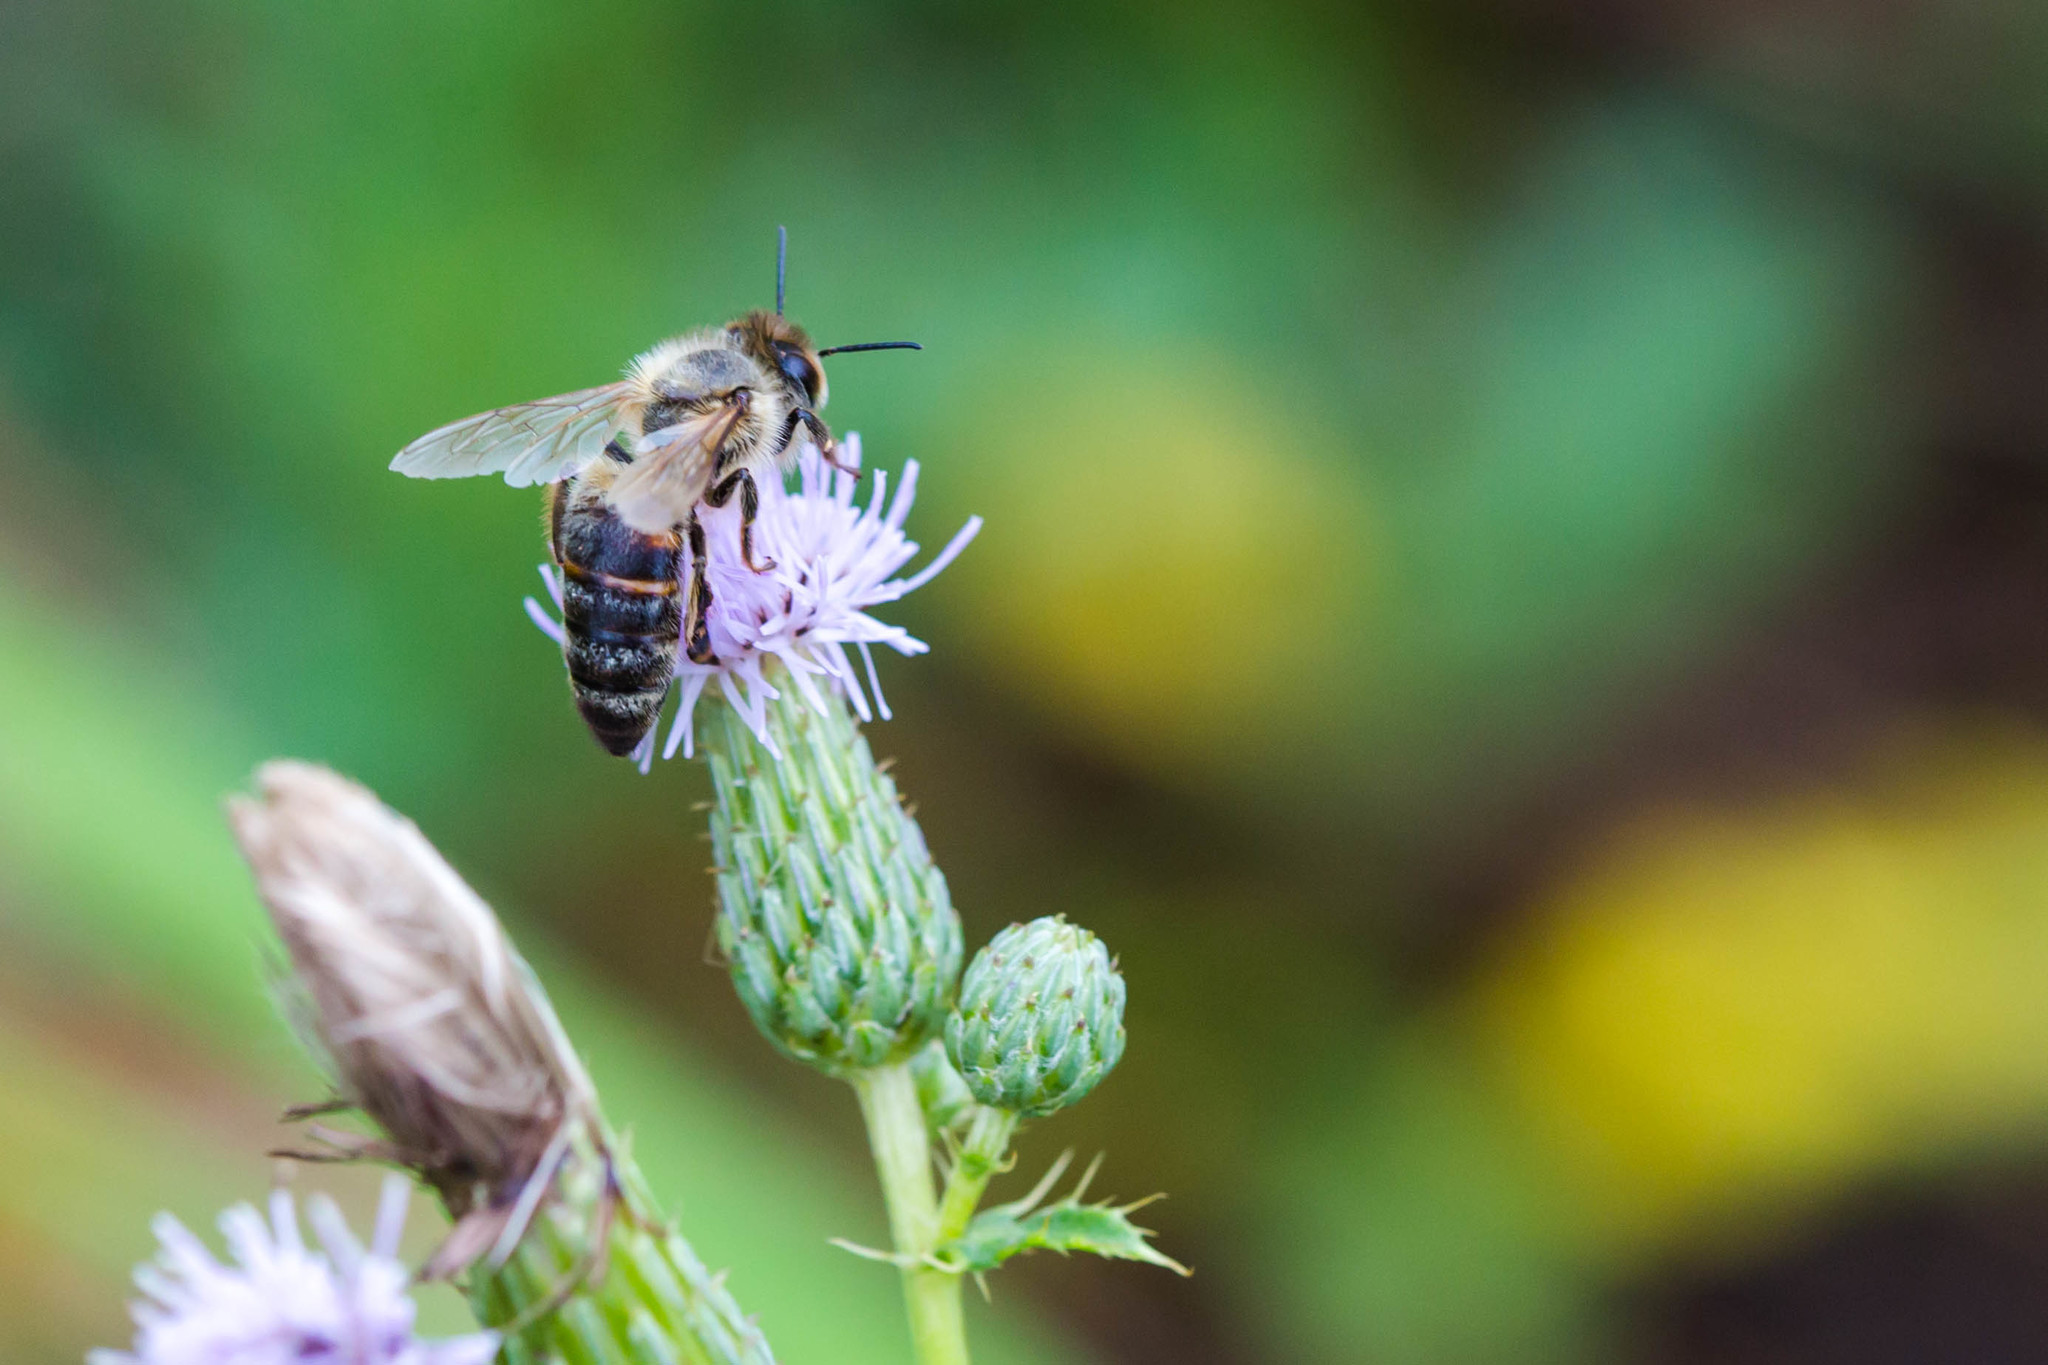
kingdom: Animalia
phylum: Arthropoda
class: Insecta
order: Hymenoptera
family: Apidae
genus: Apis
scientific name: Apis mellifera
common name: Honey bee
